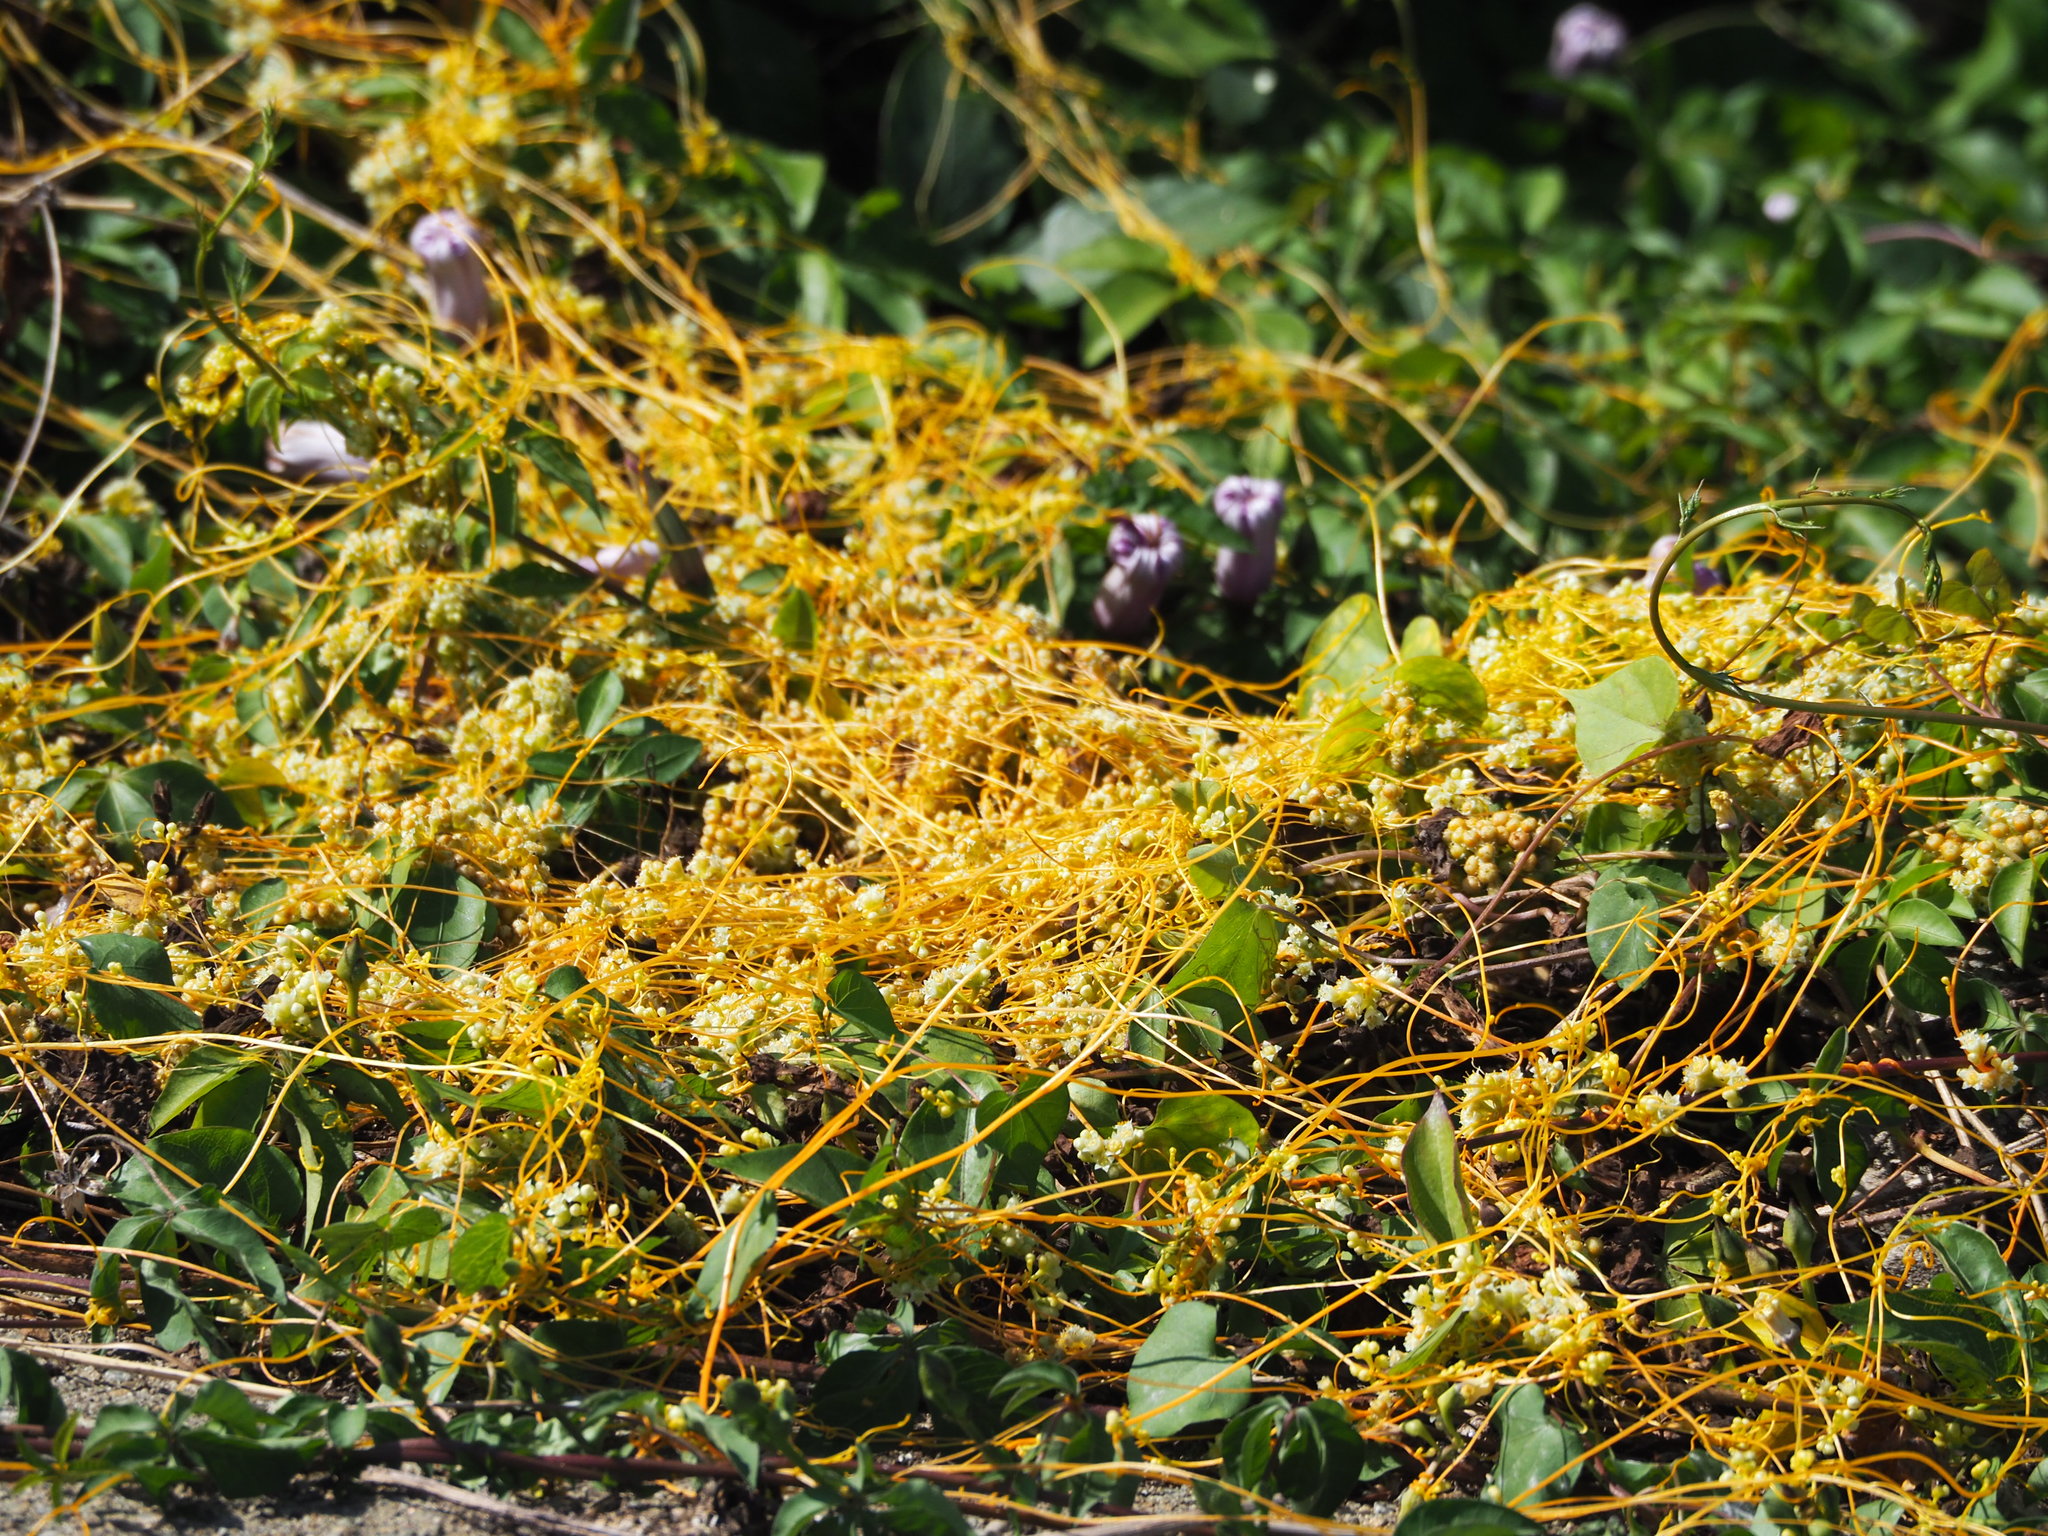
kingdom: Plantae
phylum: Tracheophyta
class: Magnoliopsida
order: Solanales
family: Convolvulaceae
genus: Cuscuta
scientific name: Cuscuta campestris
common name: Yellow dodder
